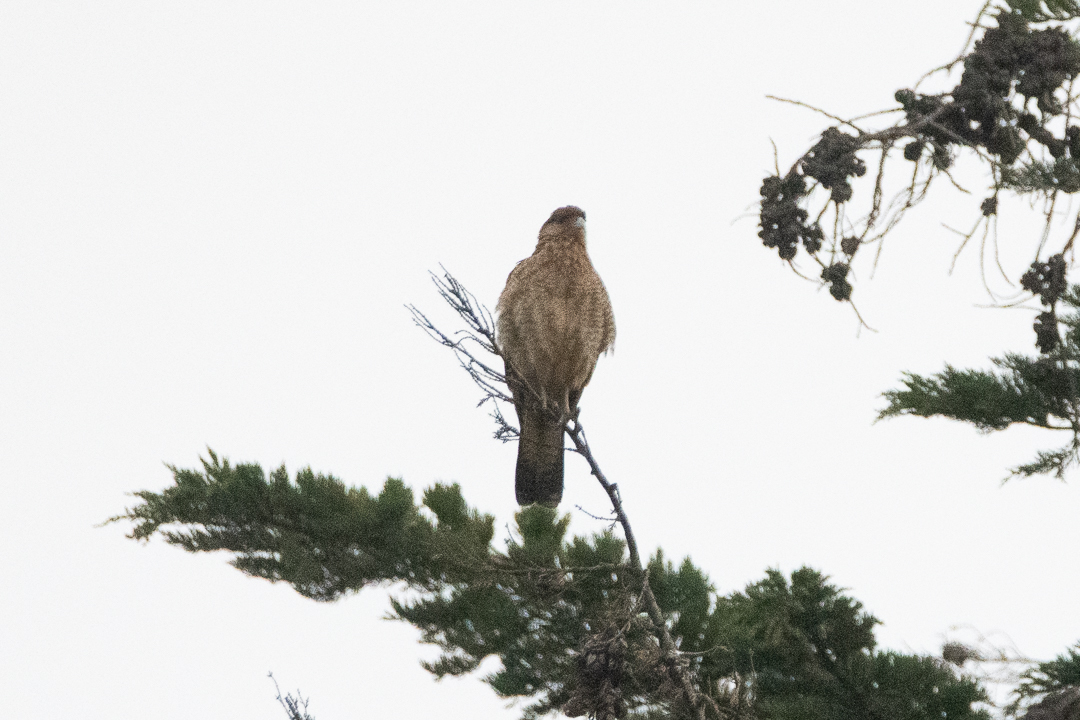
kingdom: Animalia
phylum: Chordata
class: Aves
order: Falconiformes
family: Falconidae
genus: Daptrius
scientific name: Daptrius
